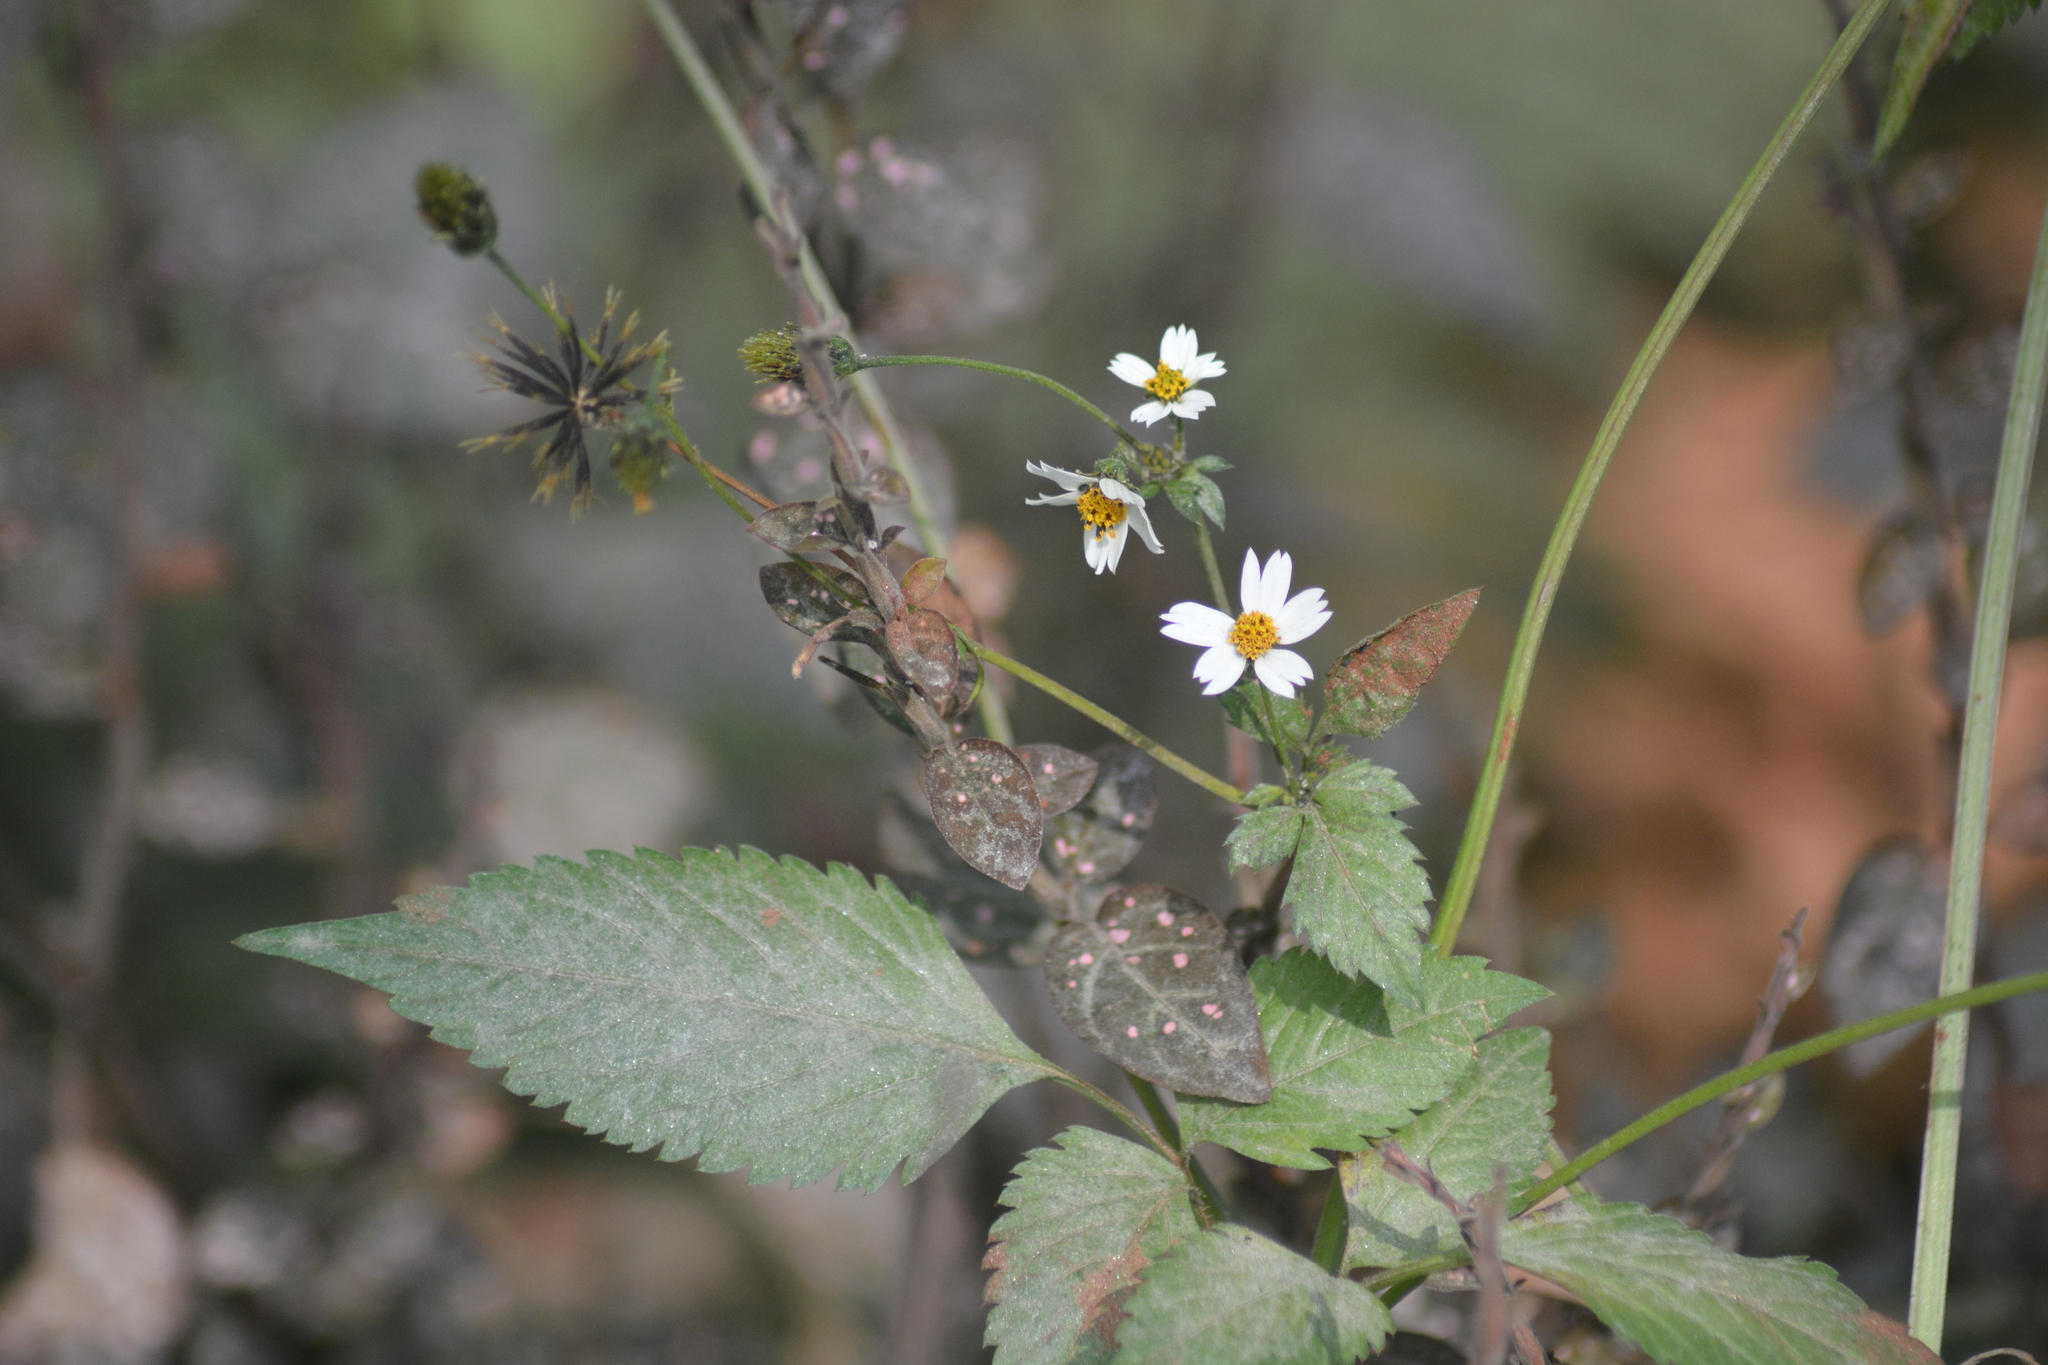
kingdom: Plantae
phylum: Tracheophyta
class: Magnoliopsida
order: Asterales
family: Asteraceae
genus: Bidens
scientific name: Bidens pilosa
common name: Black-jack
